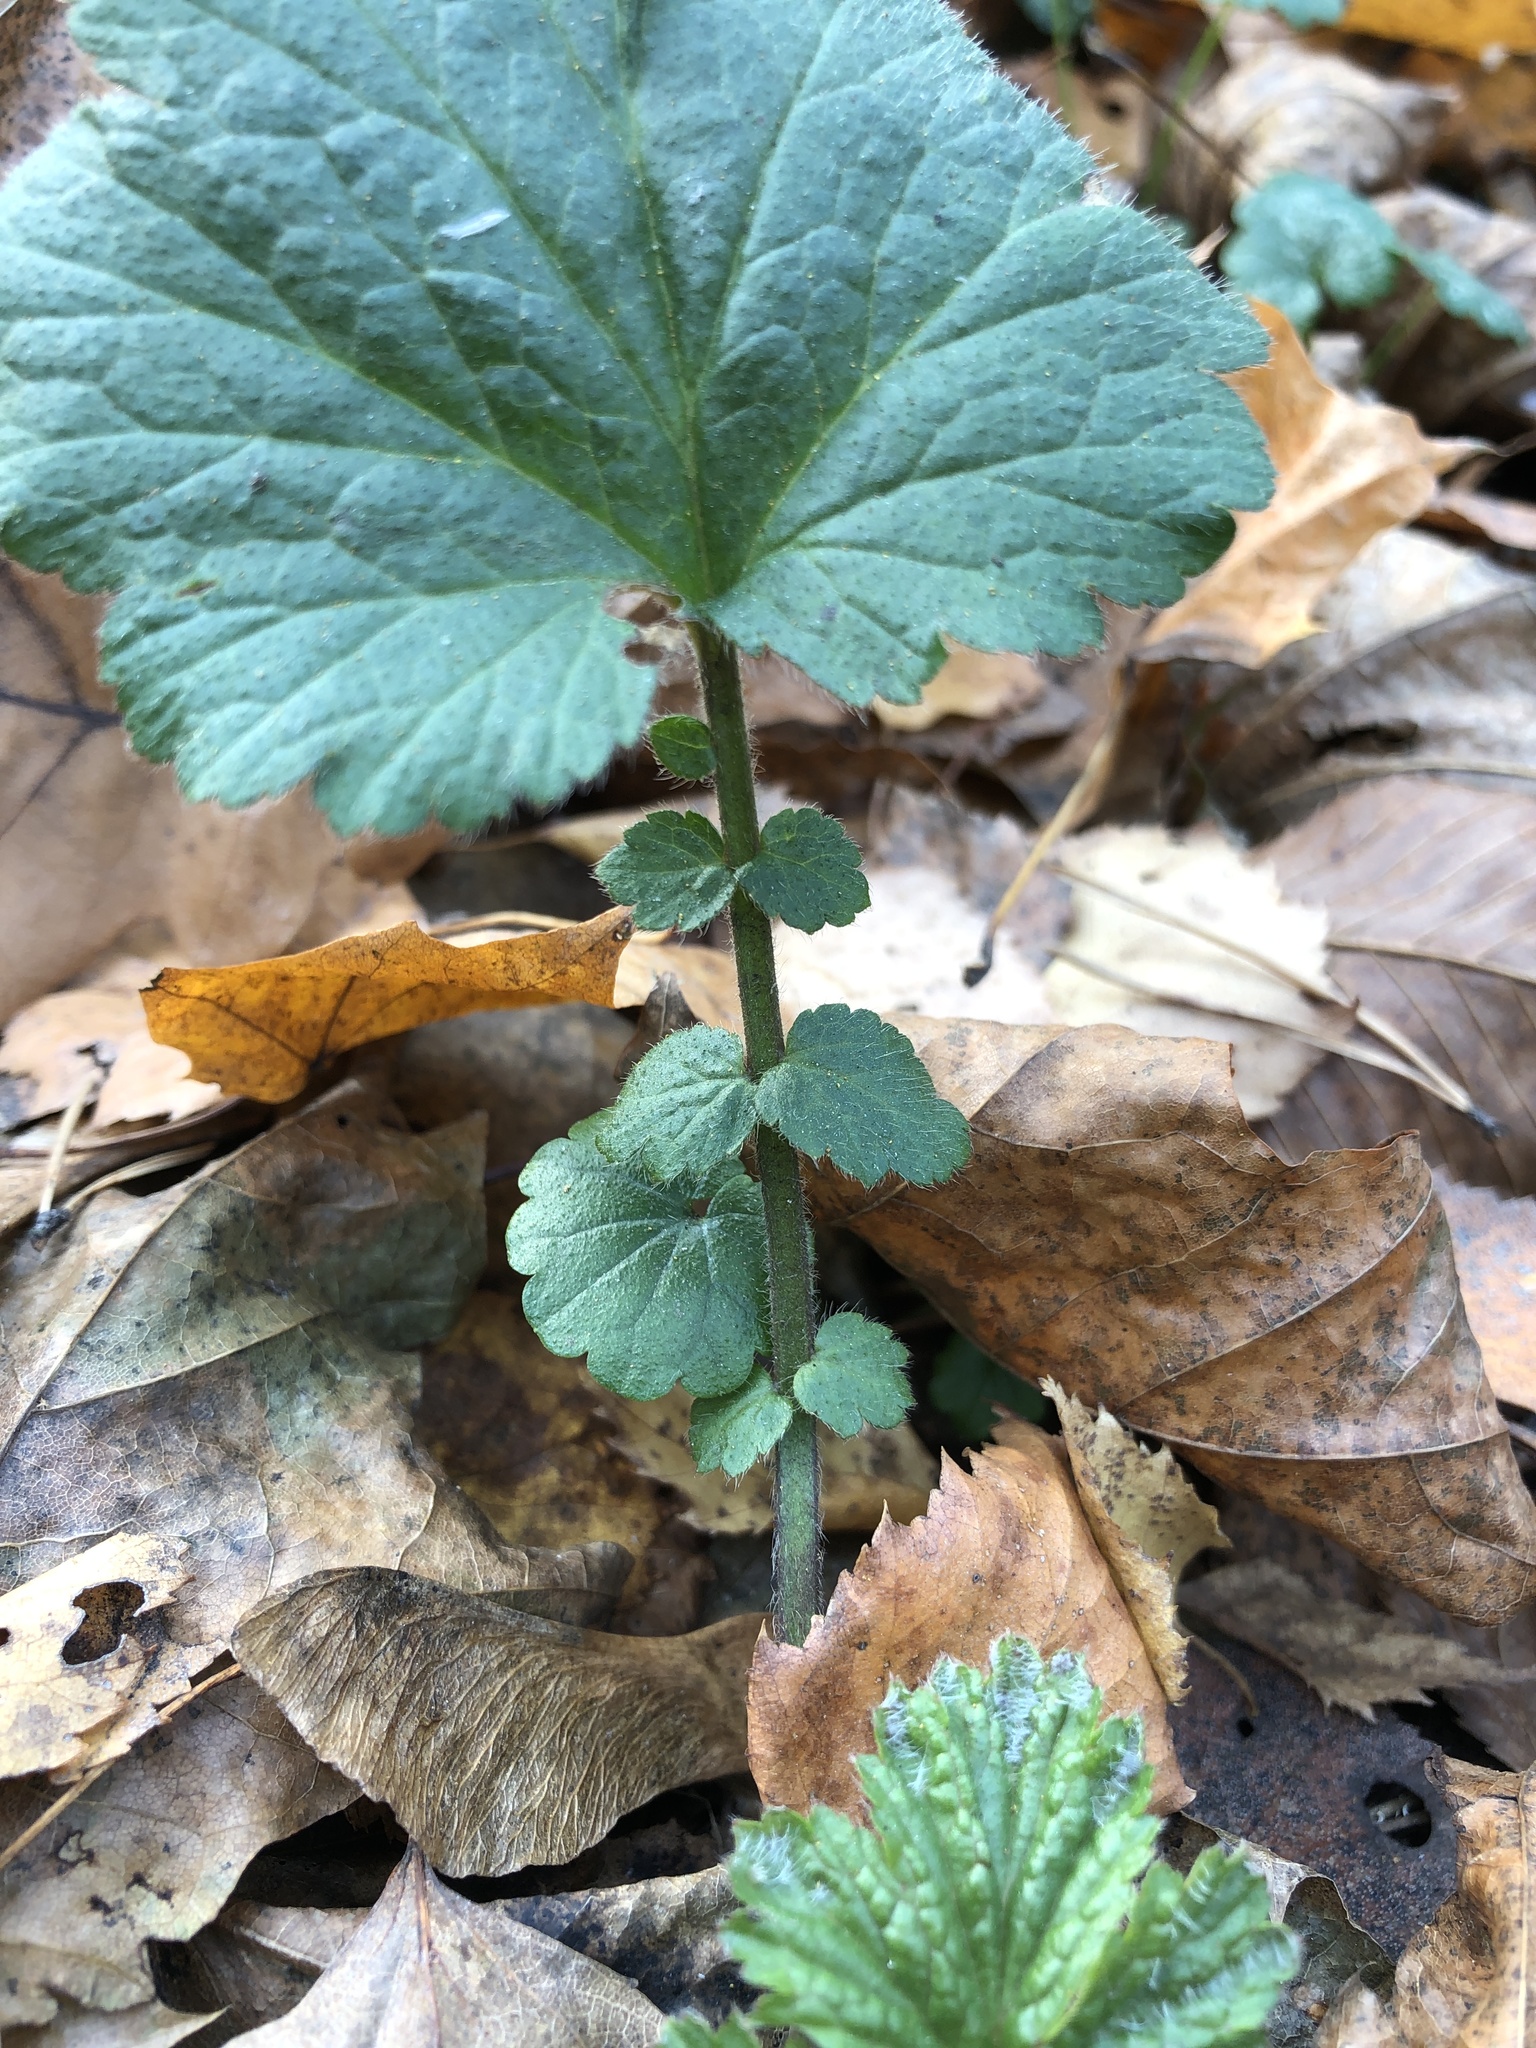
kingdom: Plantae
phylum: Tracheophyta
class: Magnoliopsida
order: Rosales
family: Rosaceae
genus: Geum
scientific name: Geum urbanum
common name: Wood avens
